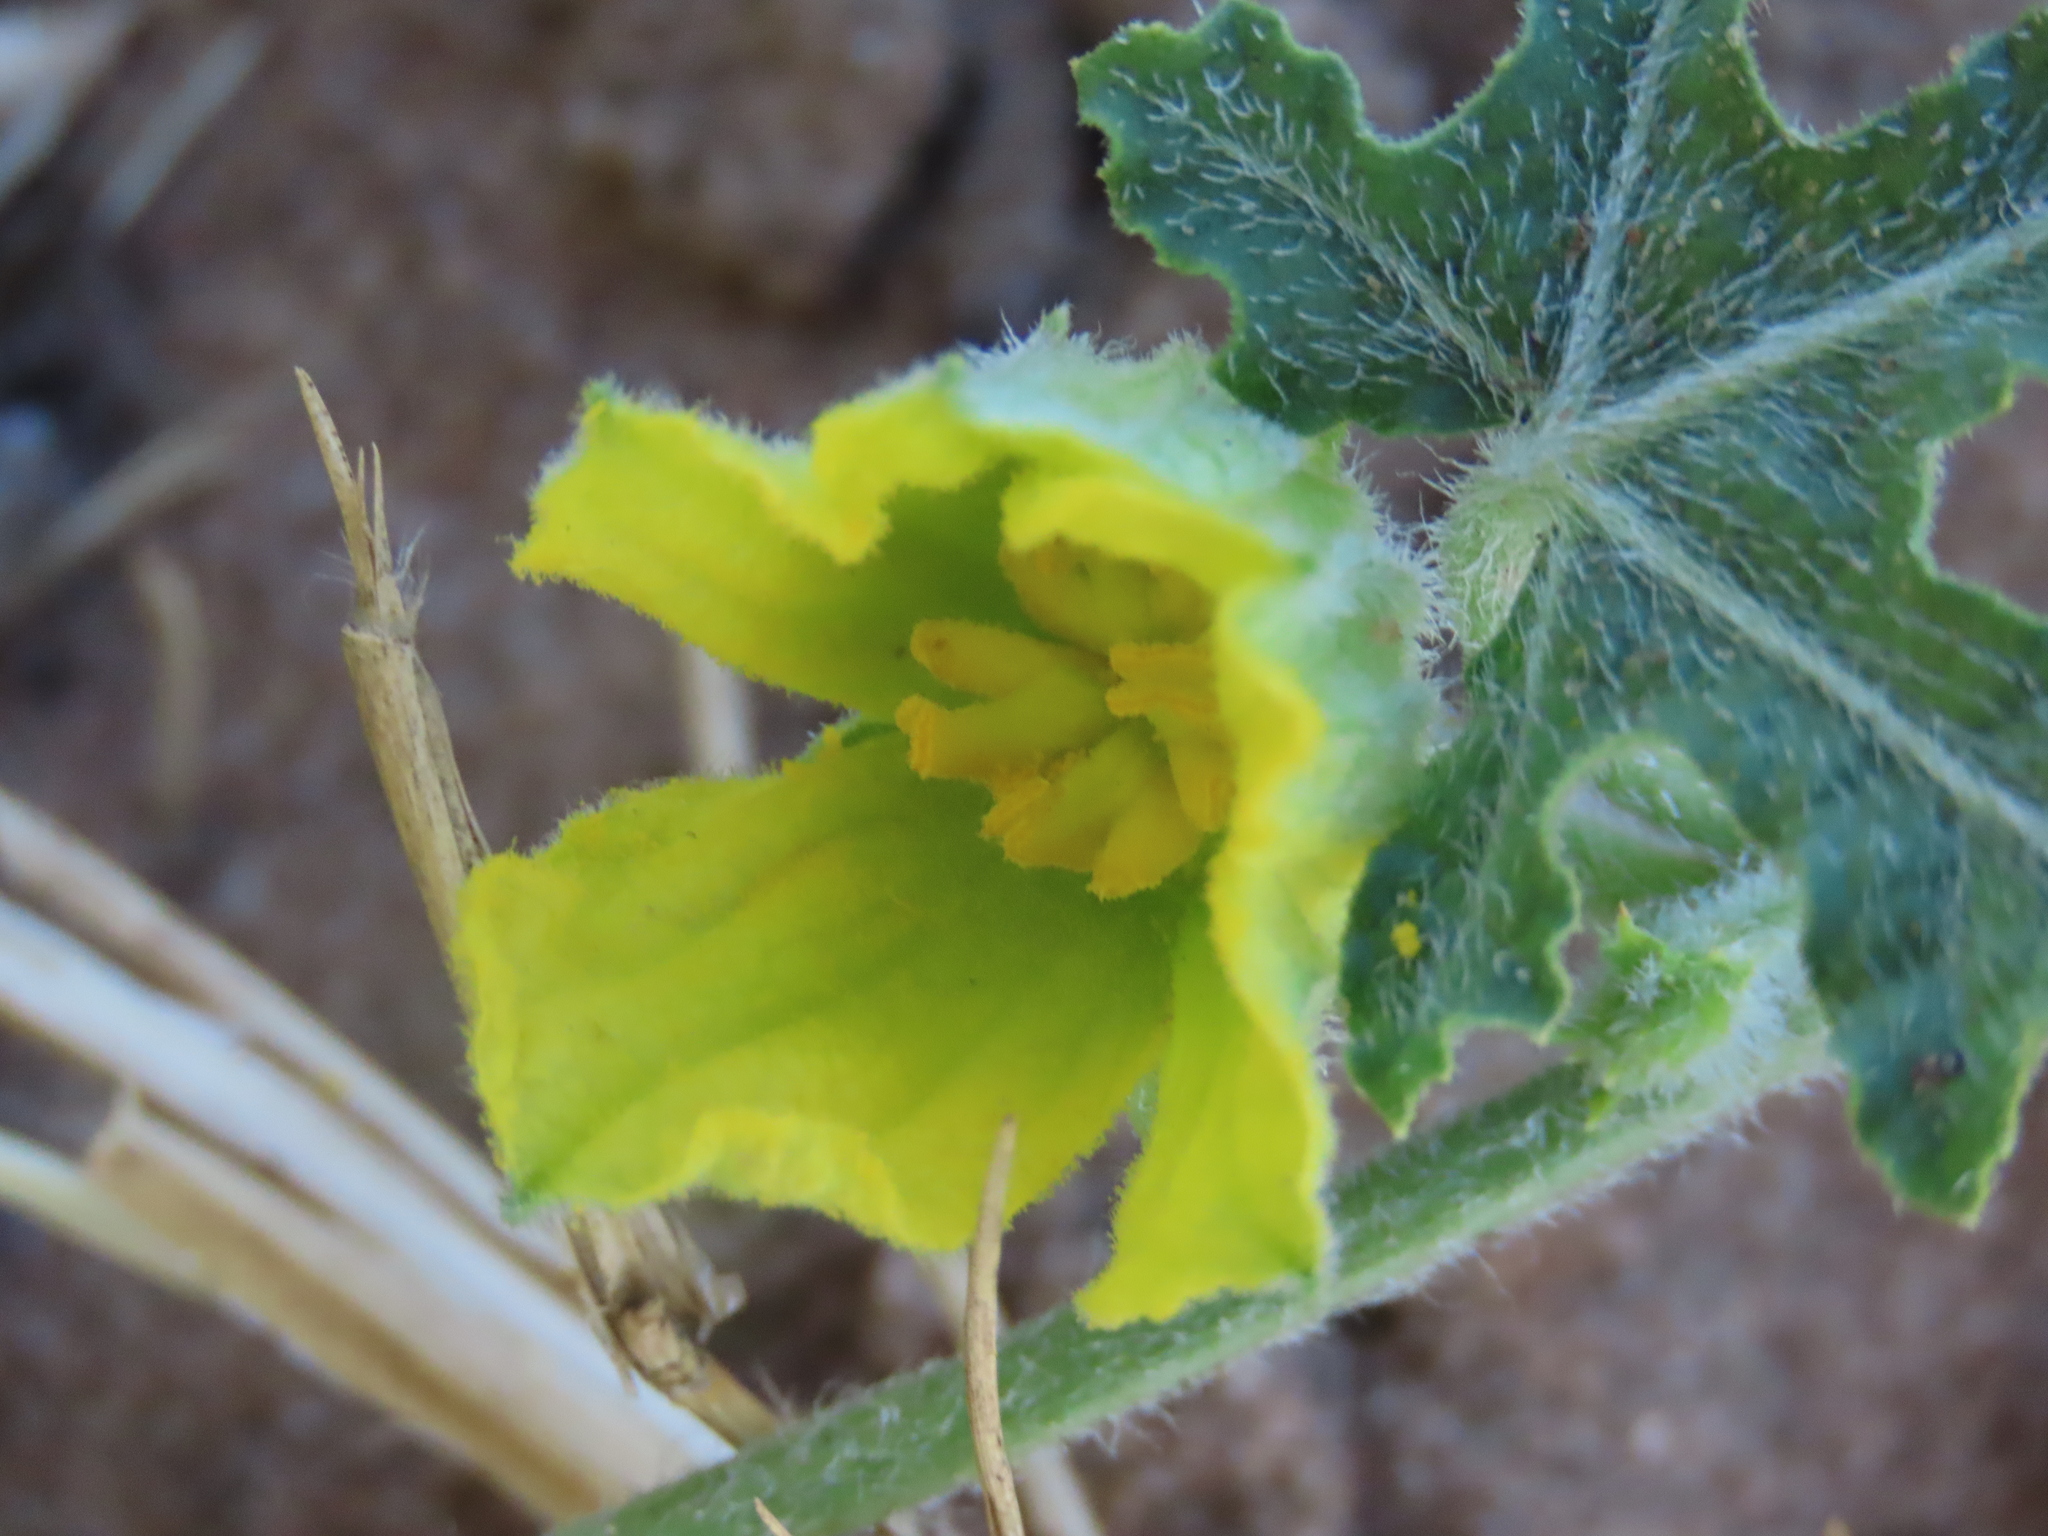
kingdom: Plantae
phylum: Tracheophyta
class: Magnoliopsida
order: Cucurbitales
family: Cucurbitaceae
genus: Citrullus
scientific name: Citrullus naudinianus
